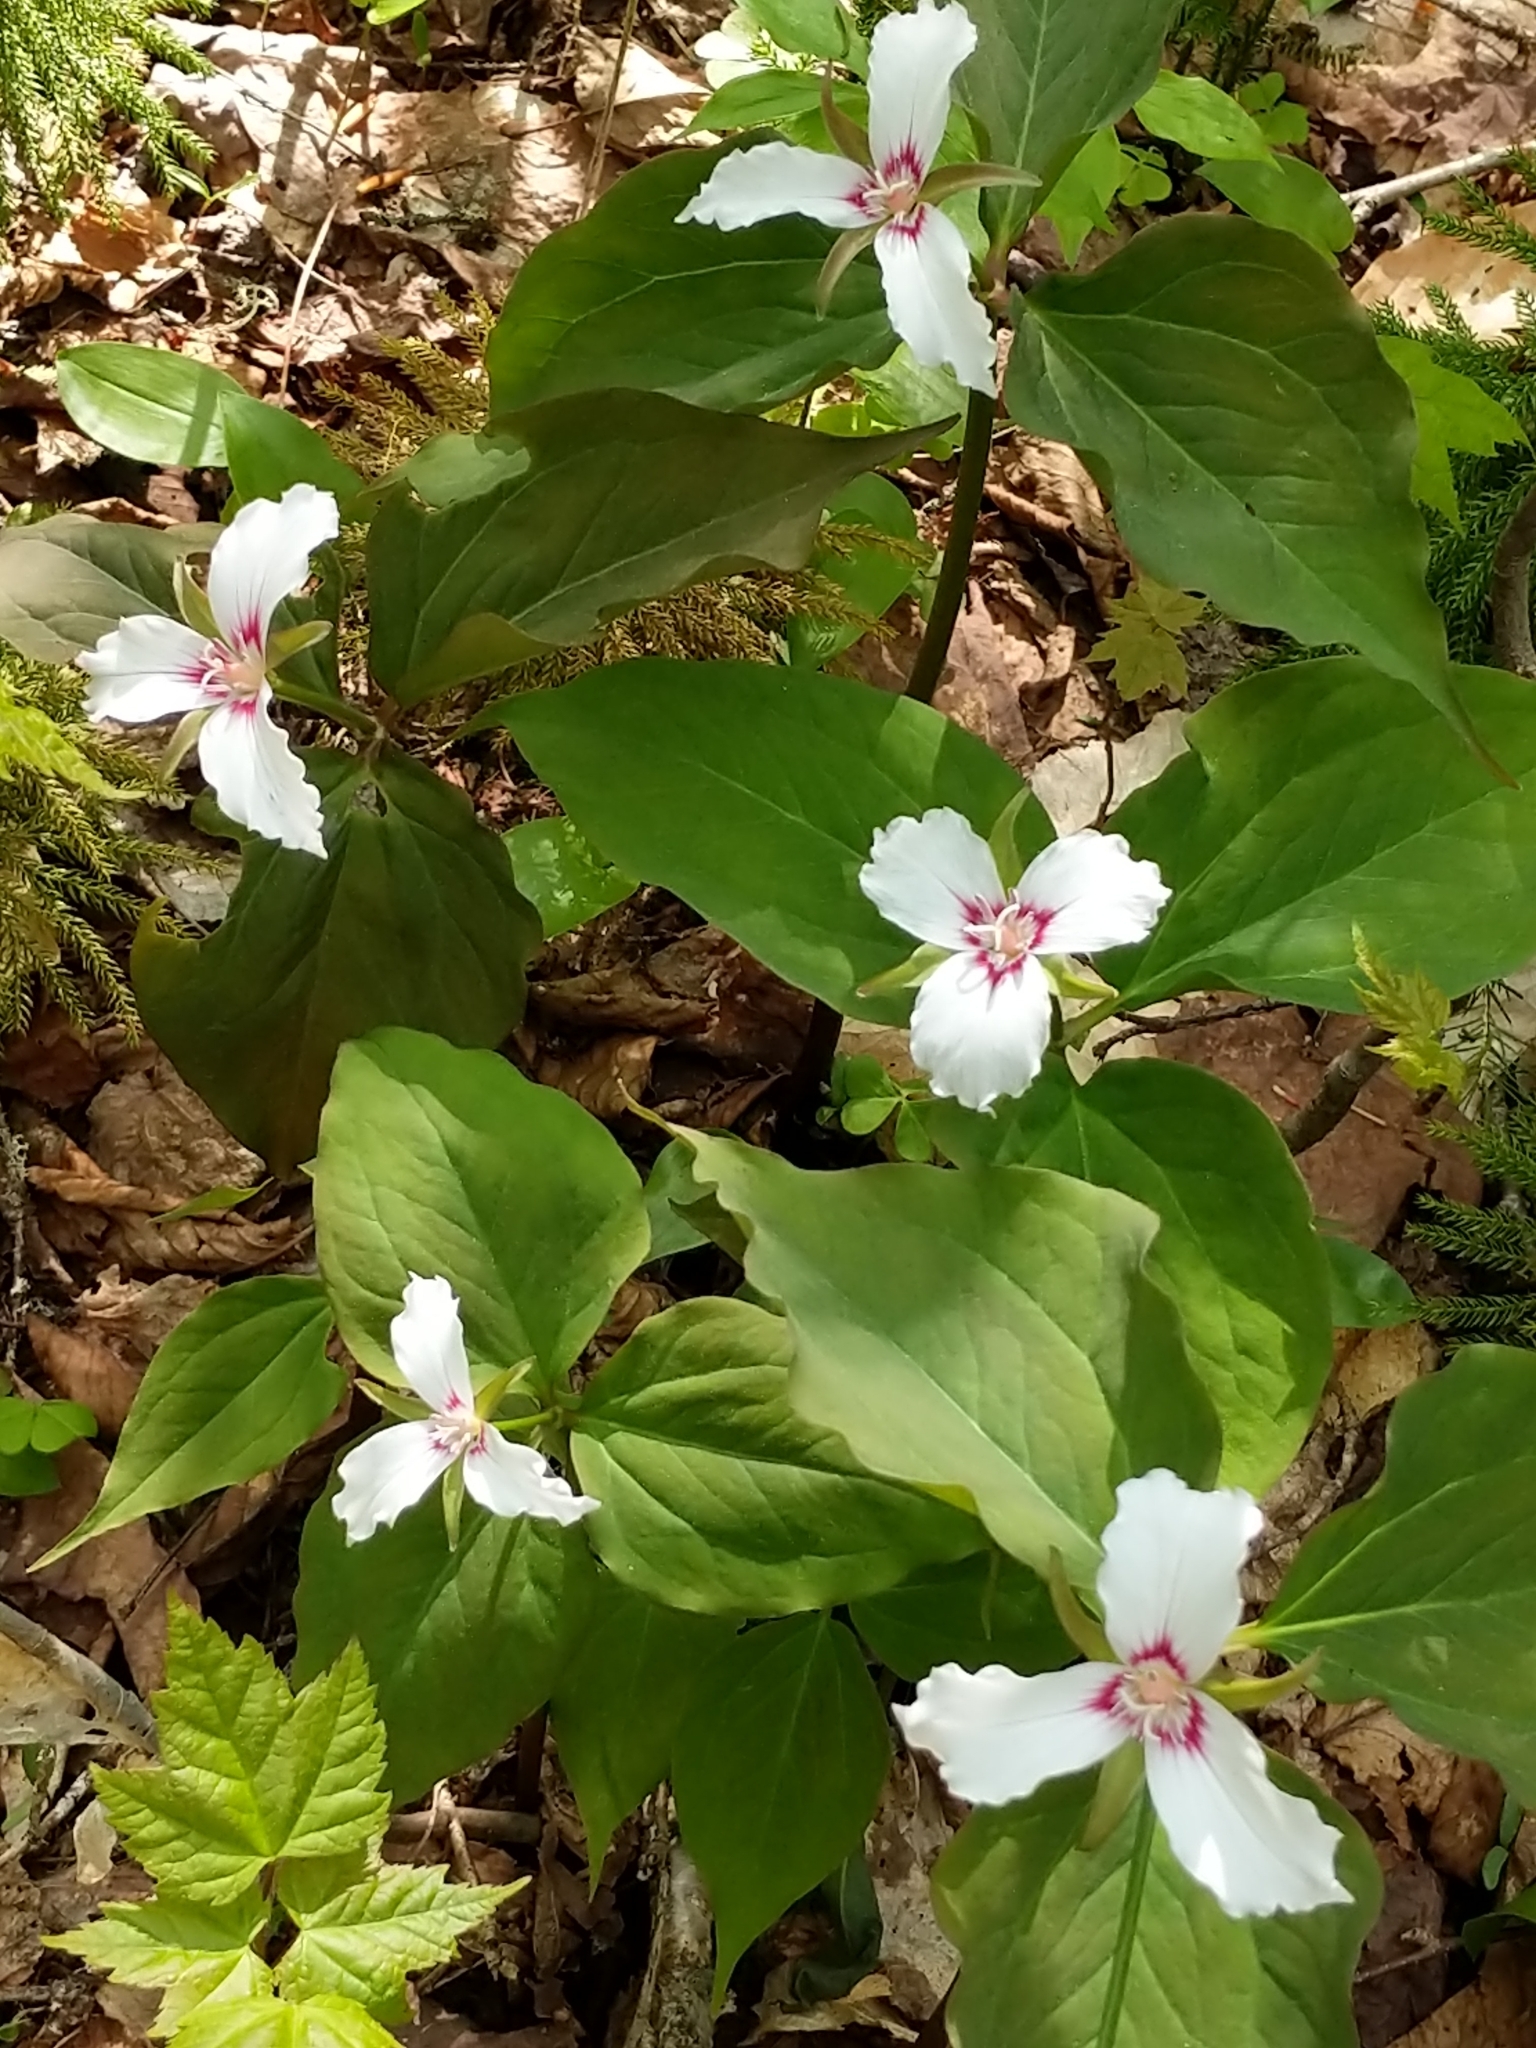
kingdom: Plantae
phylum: Tracheophyta
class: Liliopsida
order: Liliales
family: Melanthiaceae
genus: Trillium
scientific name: Trillium undulatum
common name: Paint trillium
